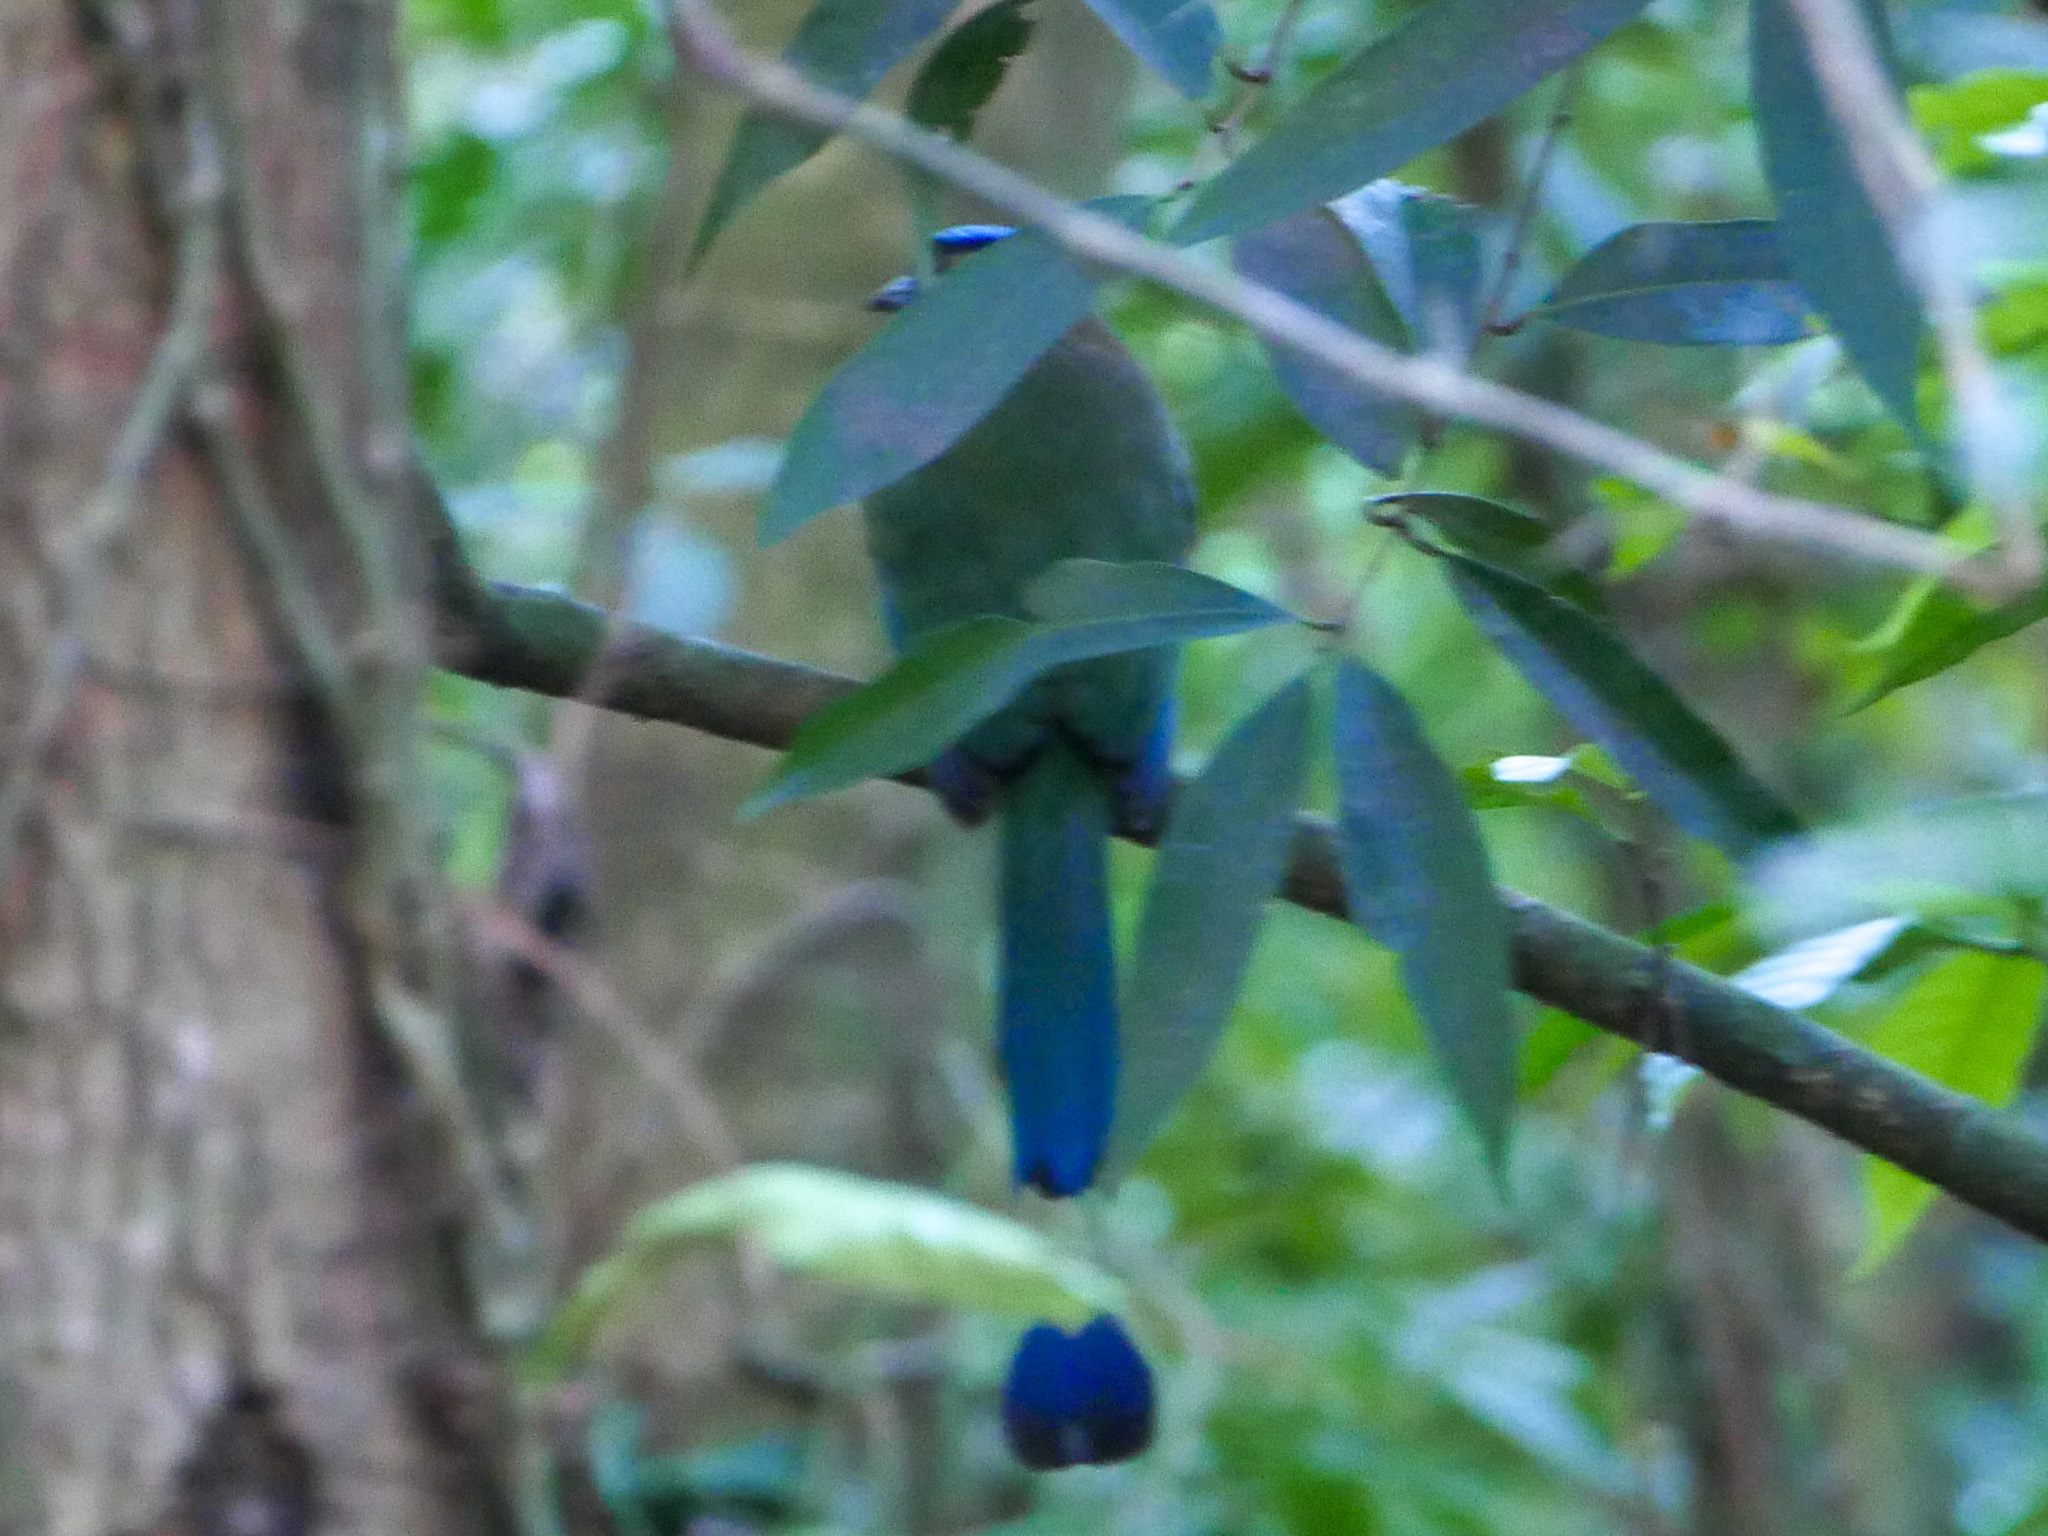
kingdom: Animalia
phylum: Chordata
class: Aves
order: Coraciiformes
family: Momotidae
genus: Momotus
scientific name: Momotus lessonii
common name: Lesson's motmot
